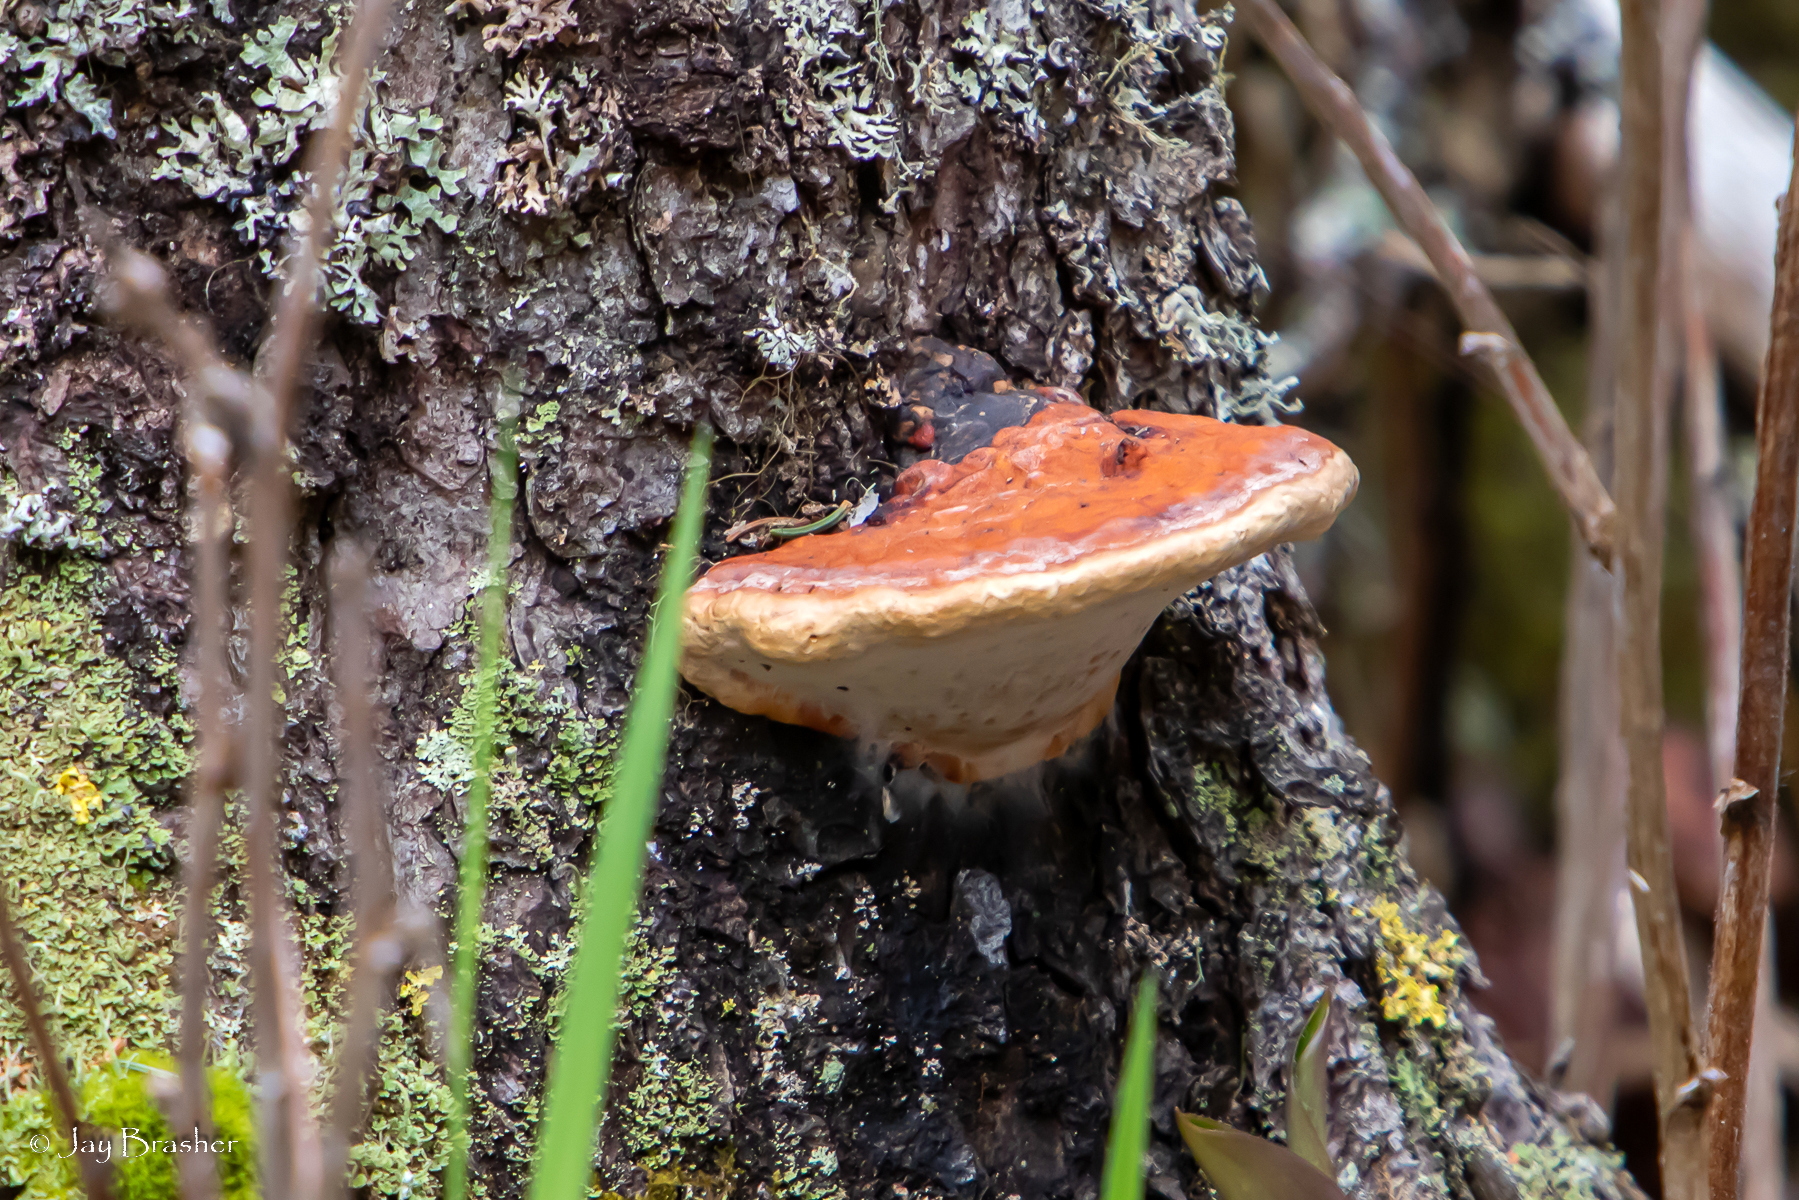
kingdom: Fungi
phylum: Basidiomycota
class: Agaricomycetes
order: Polyporales
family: Fomitopsidaceae
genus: Fomitopsis
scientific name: Fomitopsis mounceae
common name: Northern red belt
